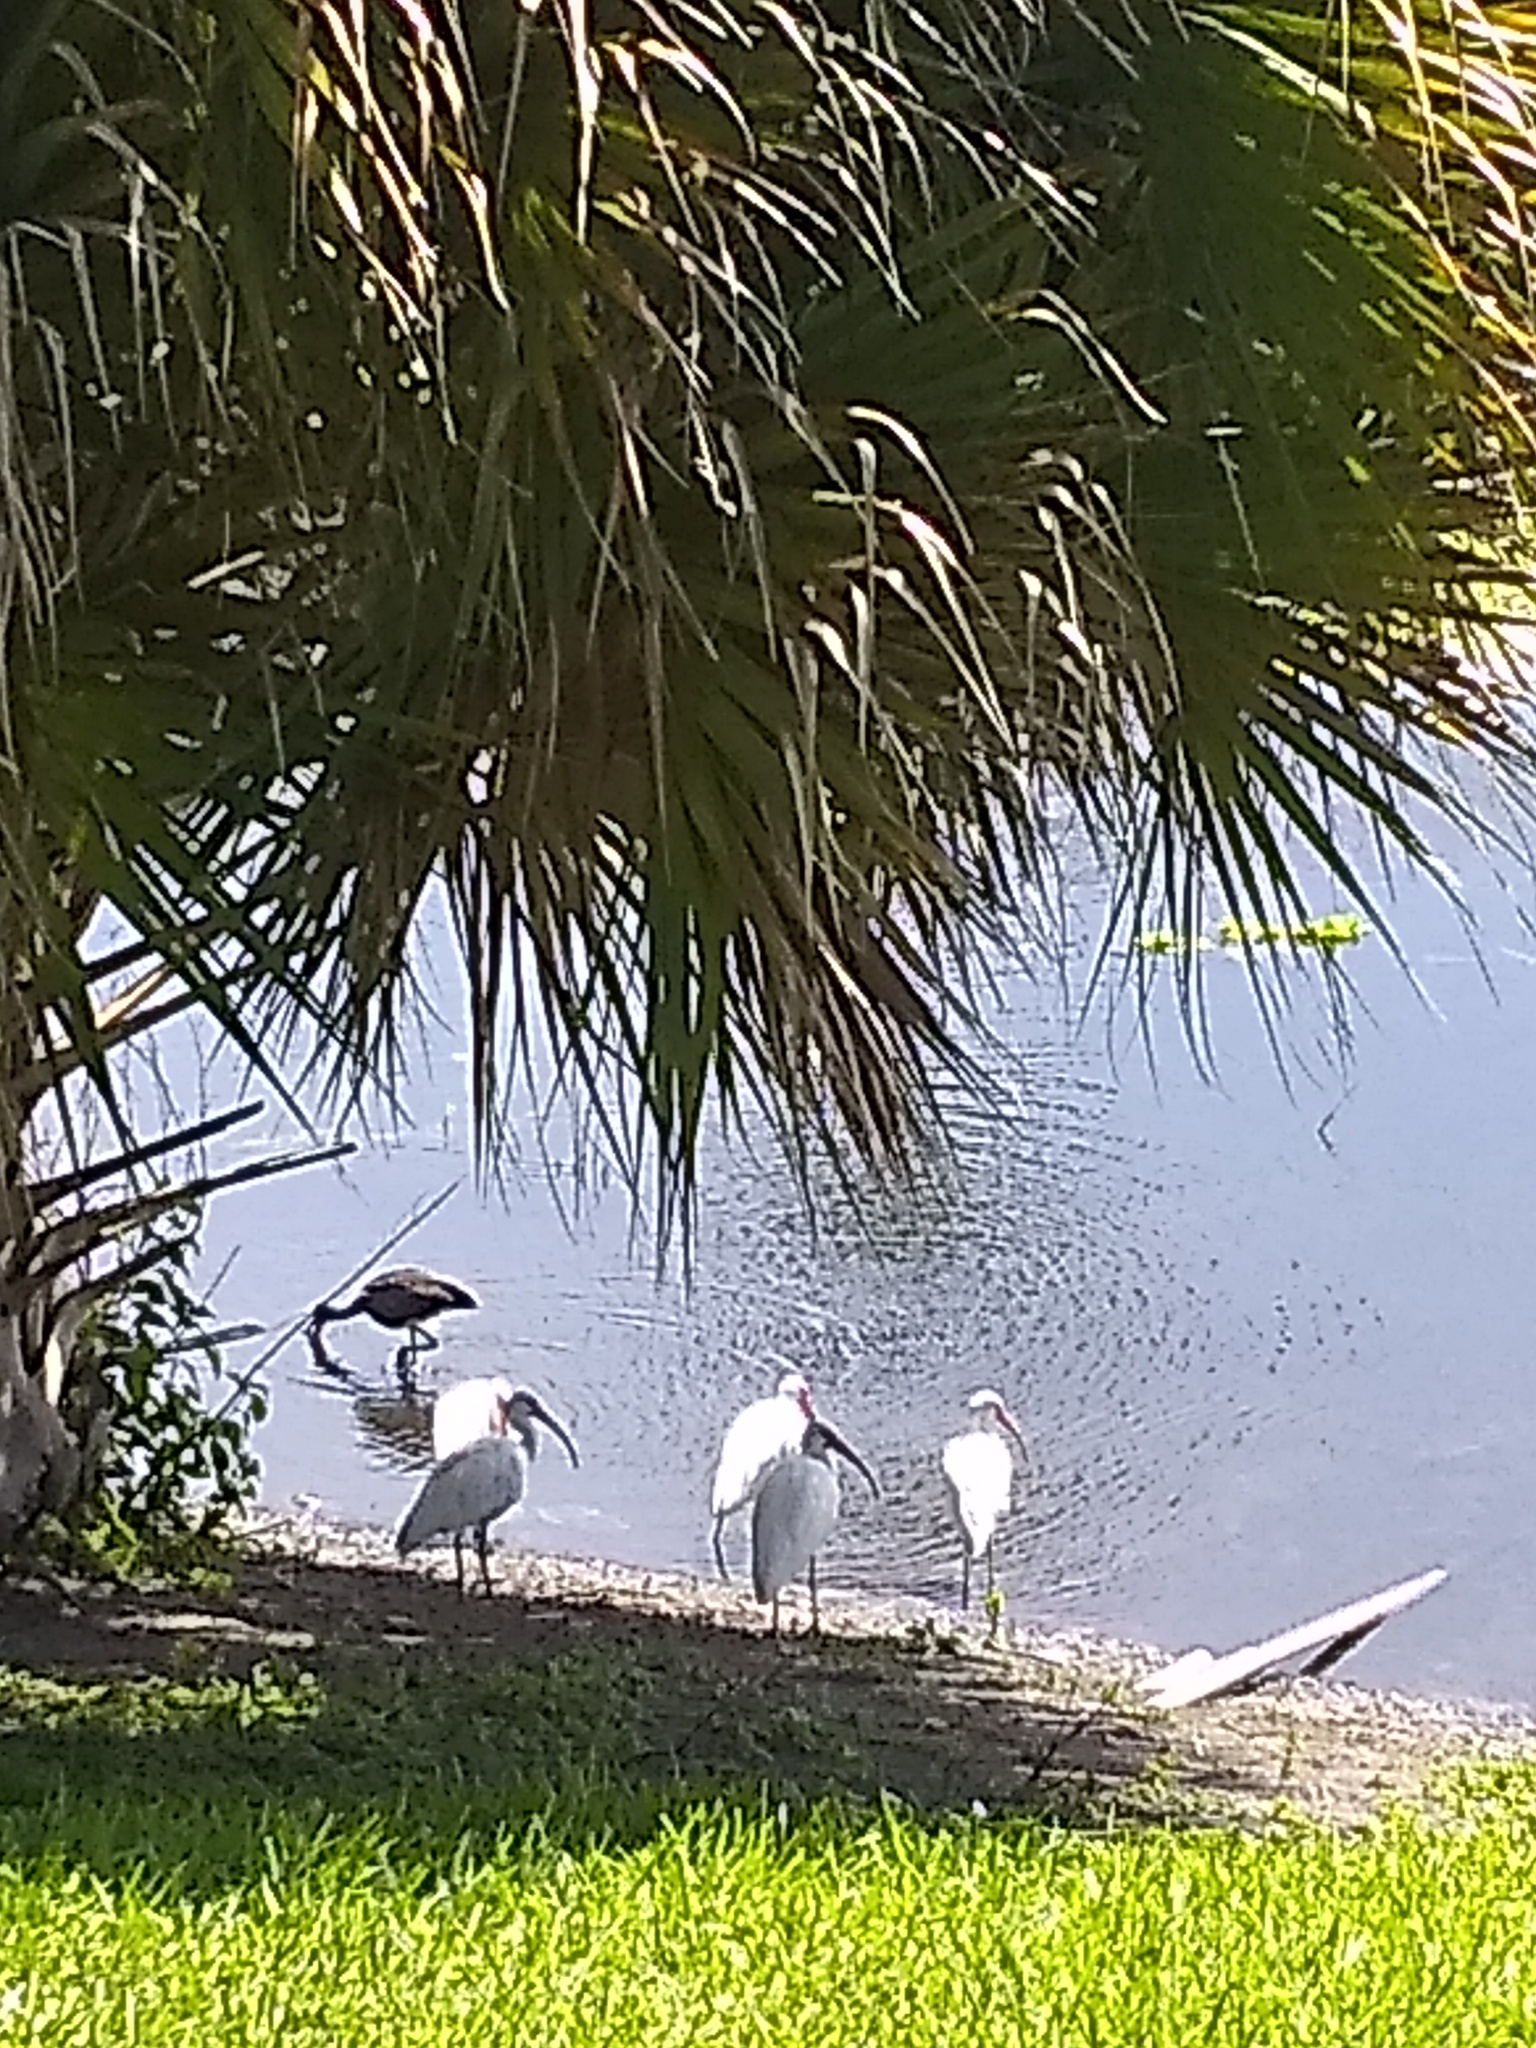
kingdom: Animalia
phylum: Chordata
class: Aves
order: Pelecaniformes
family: Threskiornithidae
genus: Eudocimus
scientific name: Eudocimus albus
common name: White ibis
